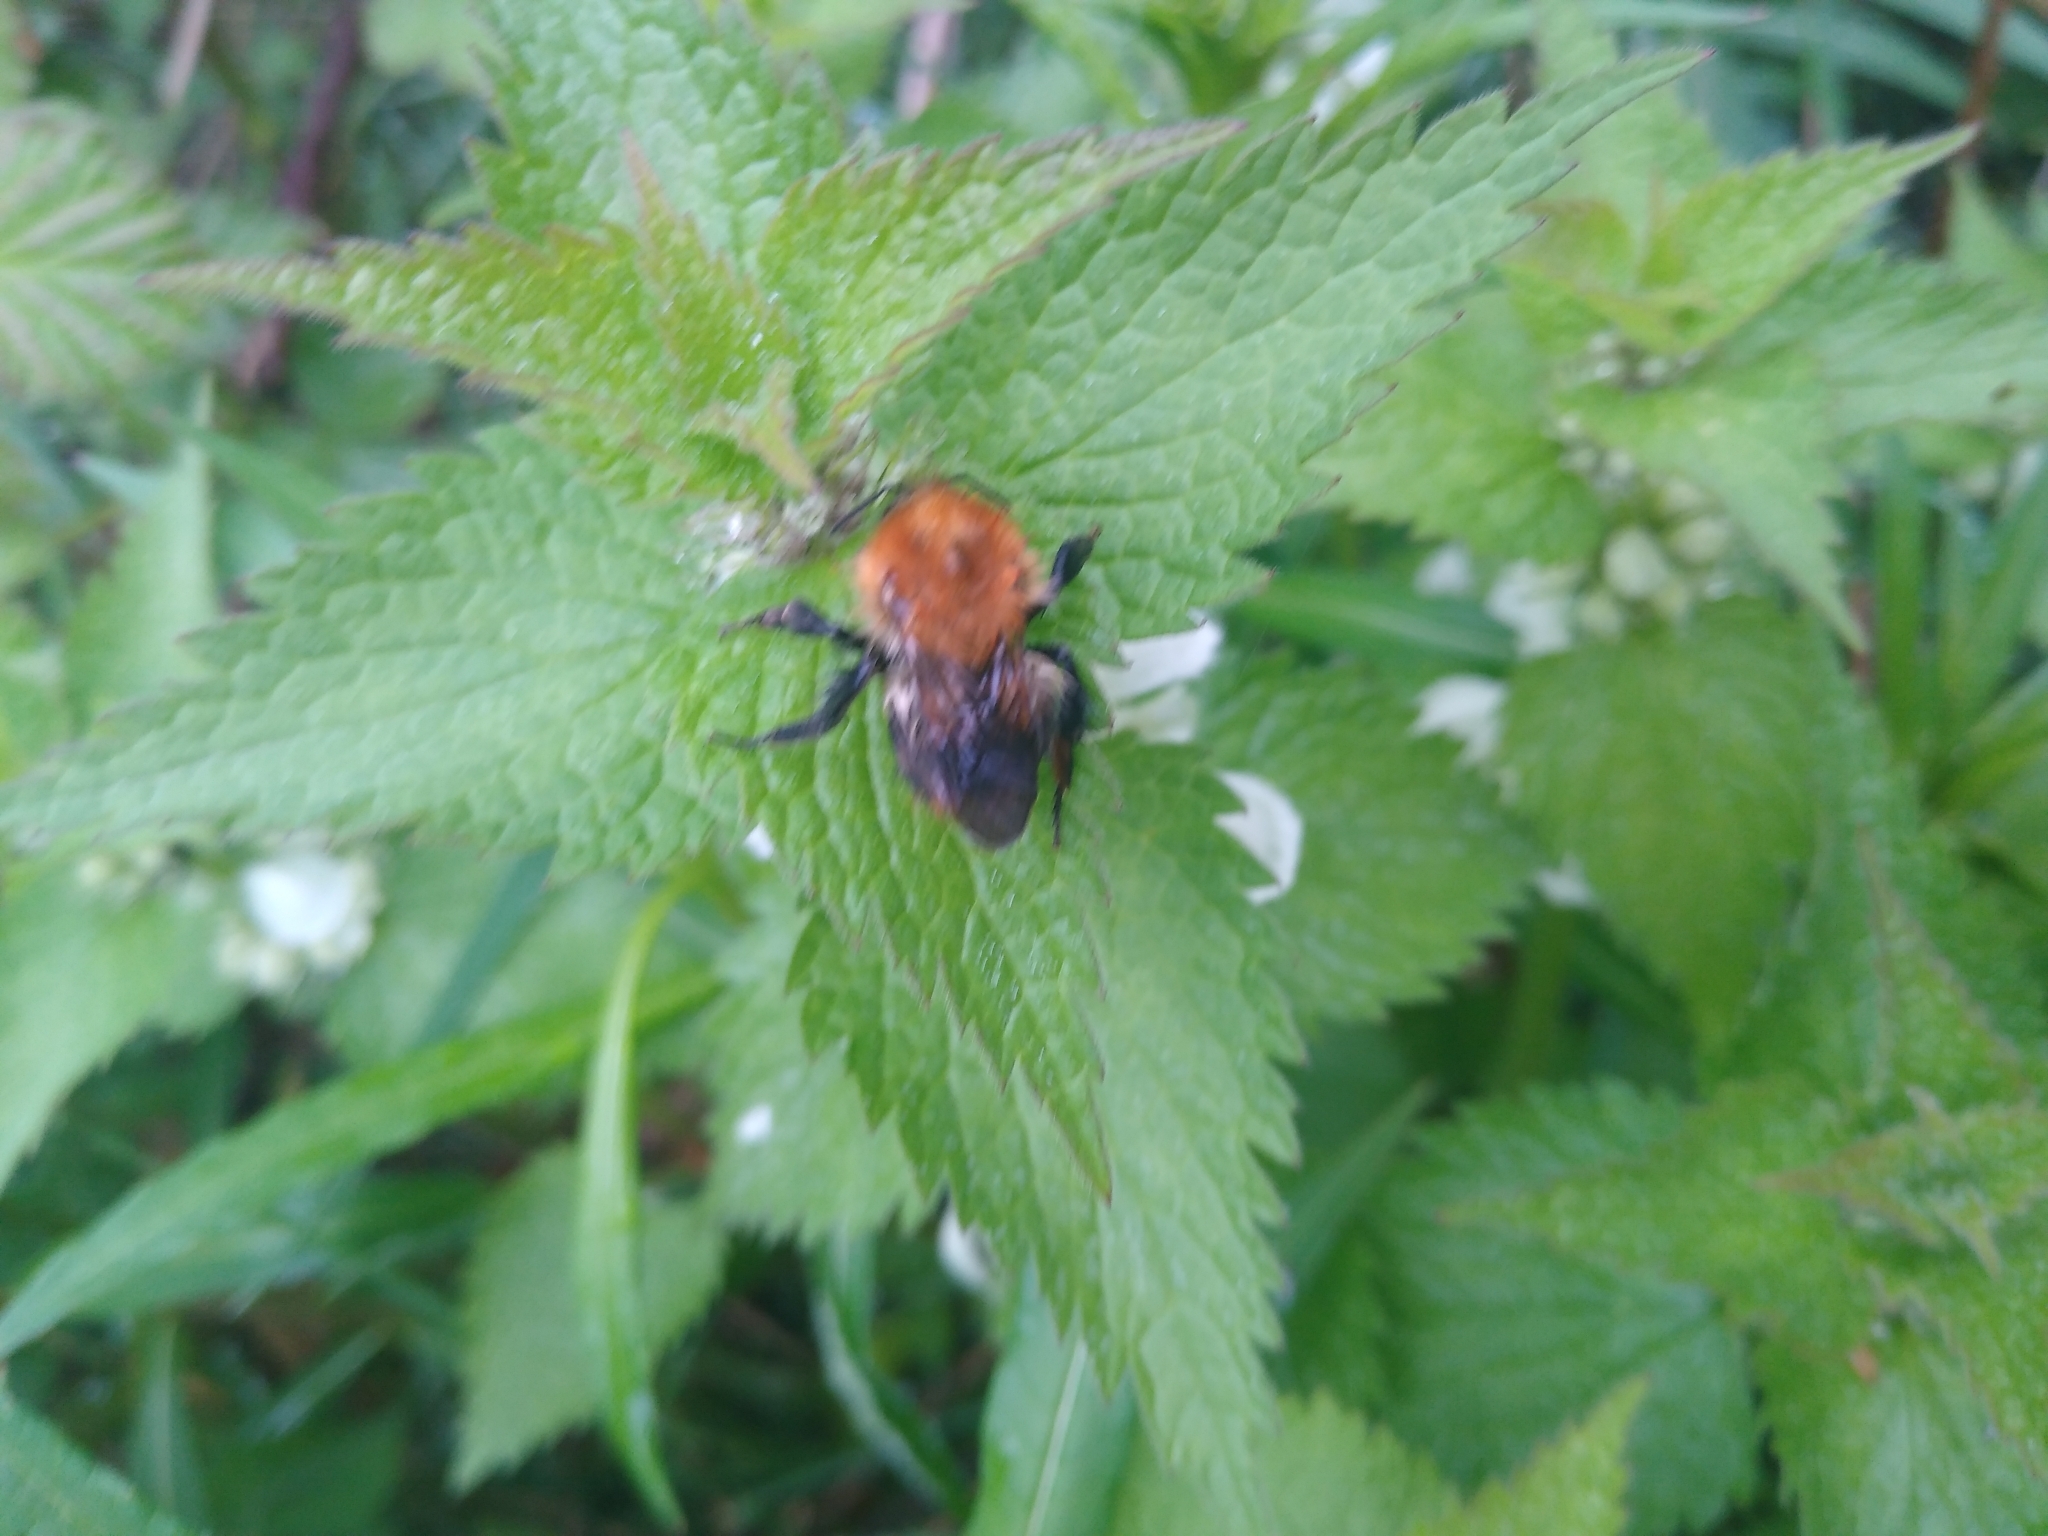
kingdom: Animalia
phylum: Arthropoda
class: Insecta
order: Hymenoptera
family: Apidae
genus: Bombus
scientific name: Bombus pascuorum
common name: Common carder bee
